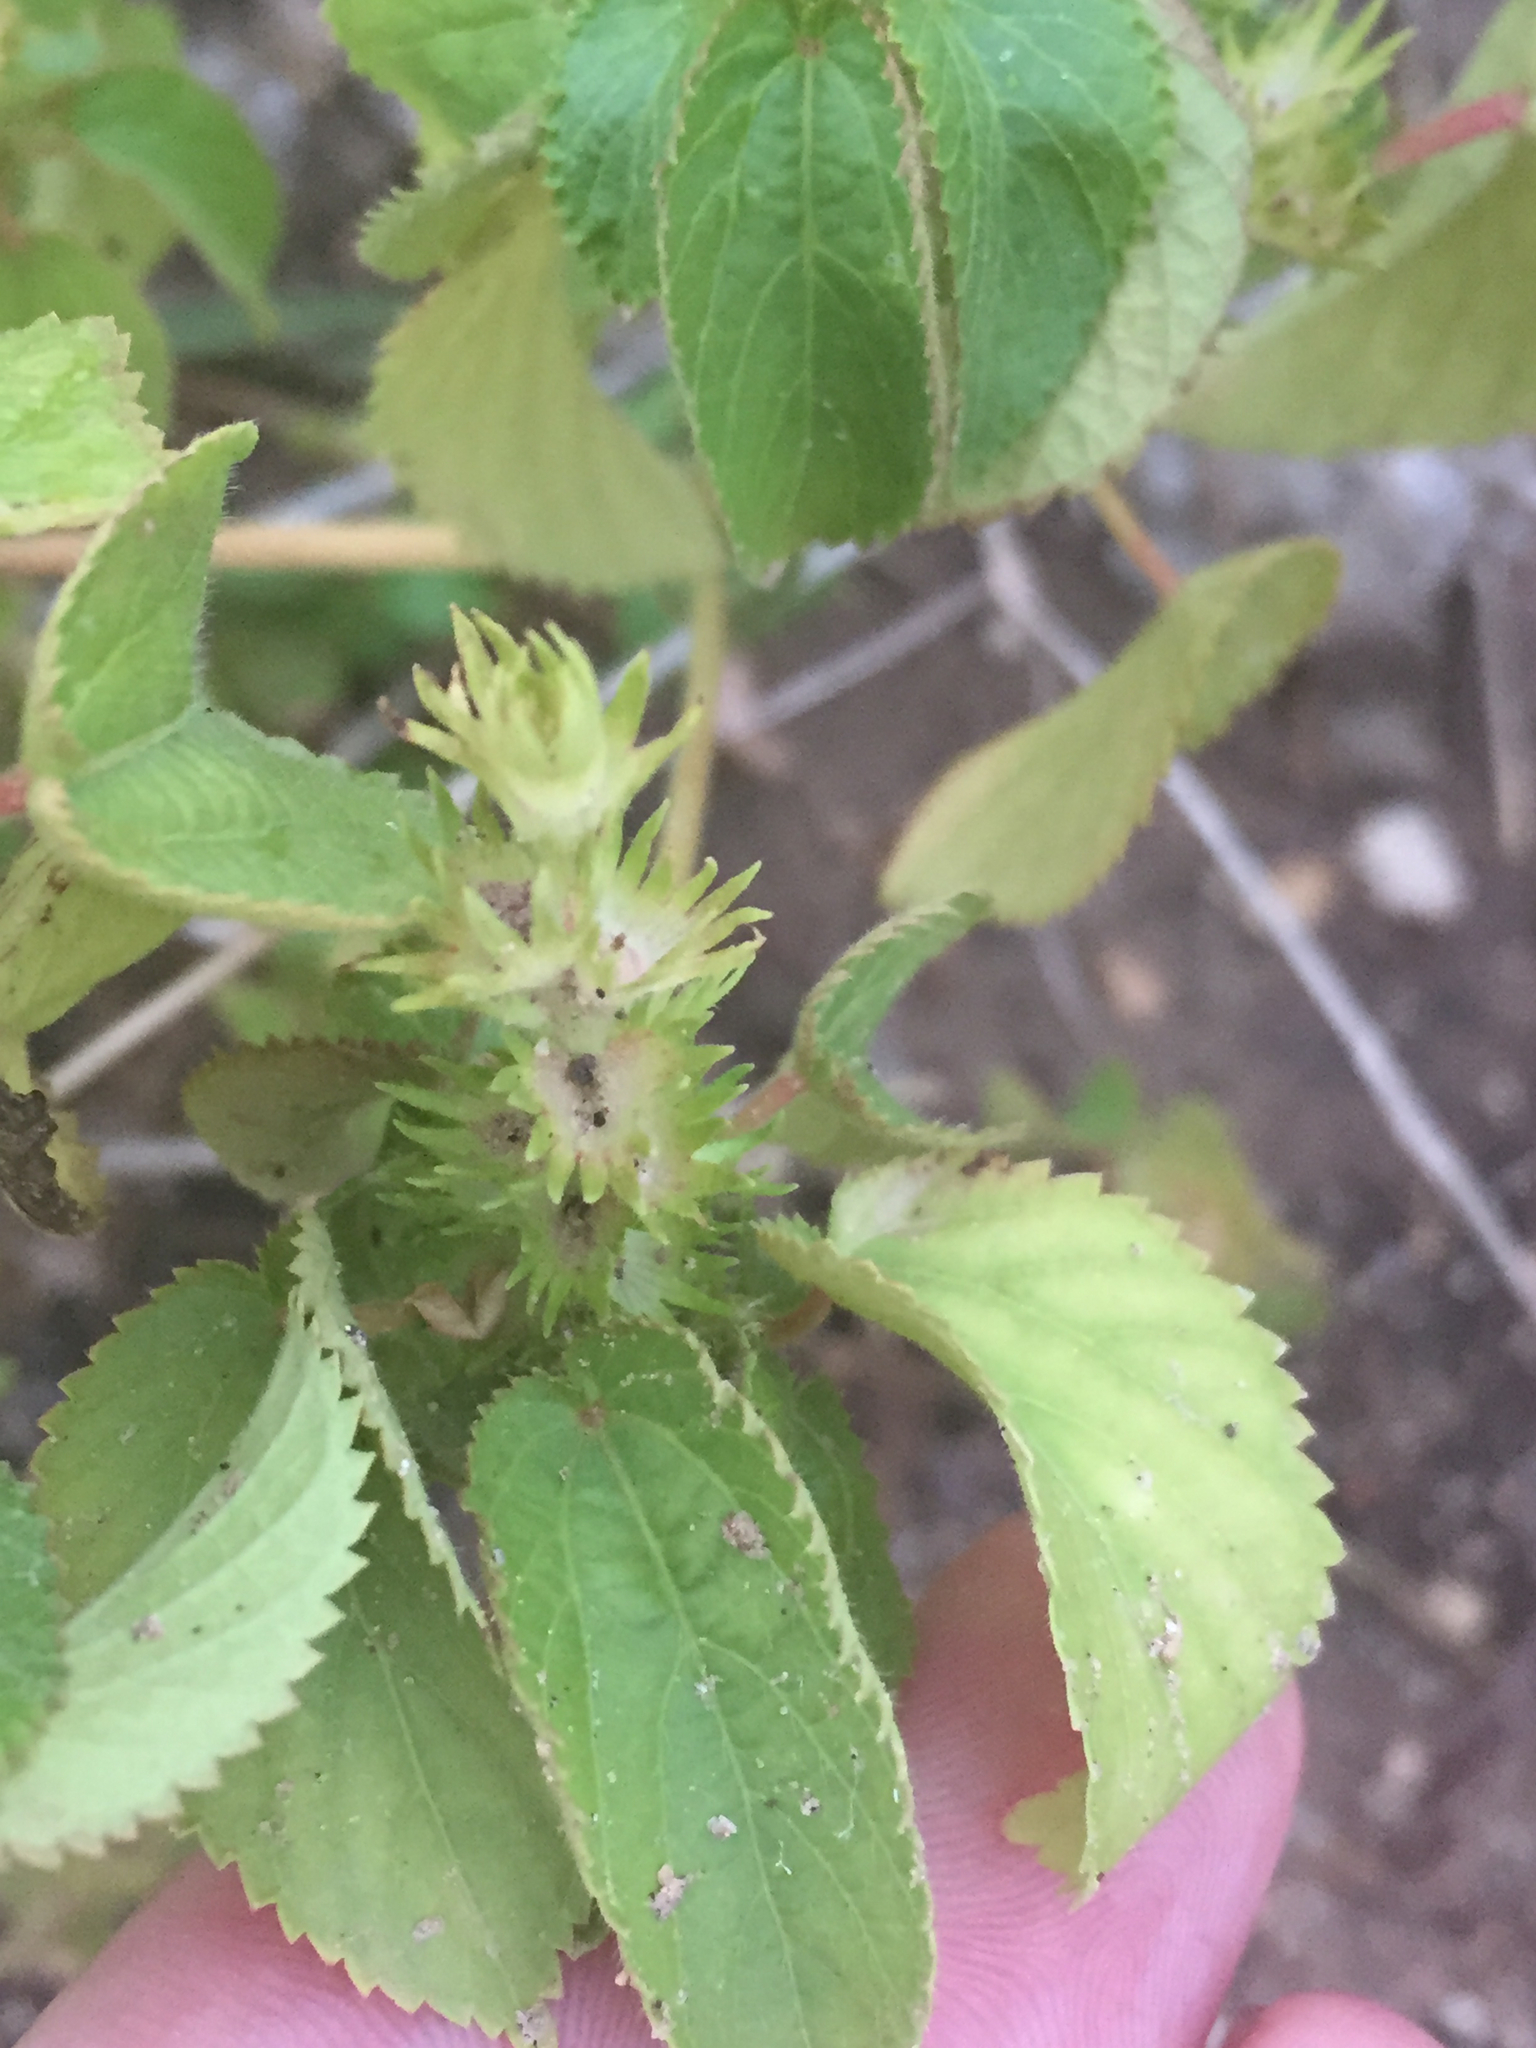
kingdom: Plantae
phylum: Tracheophyta
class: Magnoliopsida
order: Malpighiales
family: Euphorbiaceae
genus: Acalypha
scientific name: Acalypha ostryifolia
